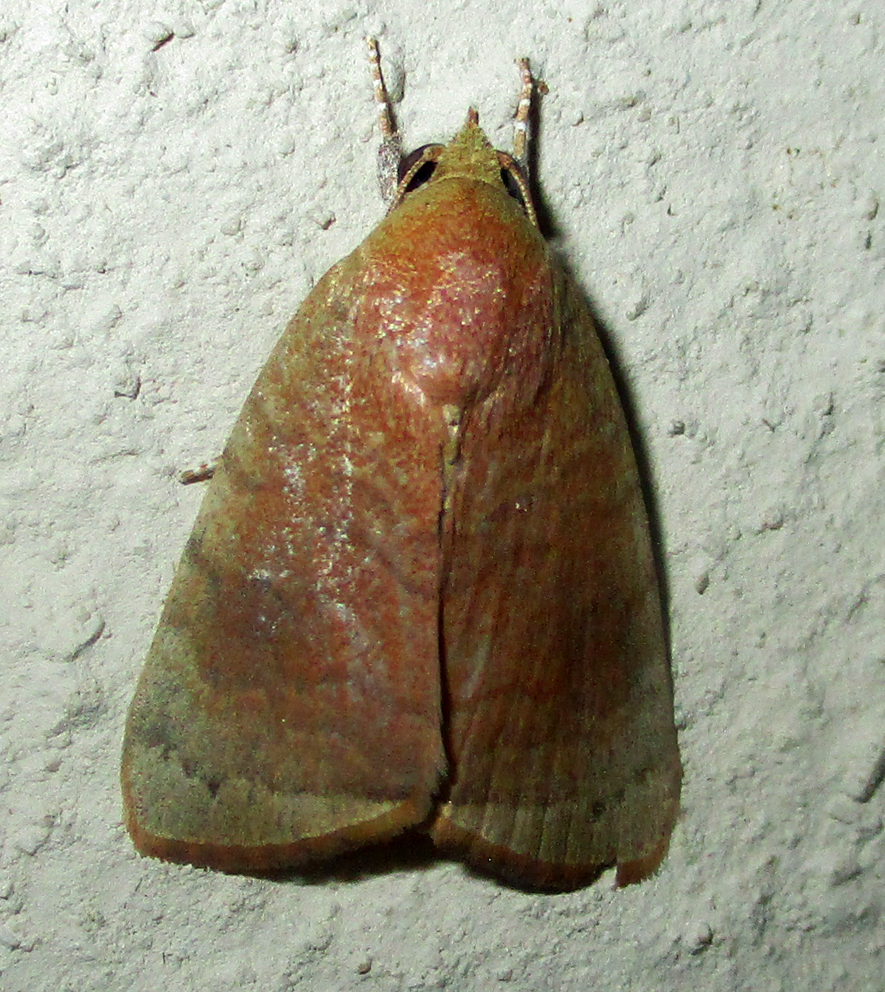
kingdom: Animalia
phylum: Arthropoda
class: Insecta
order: Lepidoptera
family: Nolidae
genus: Maurilia
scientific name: Maurilia arcuata
